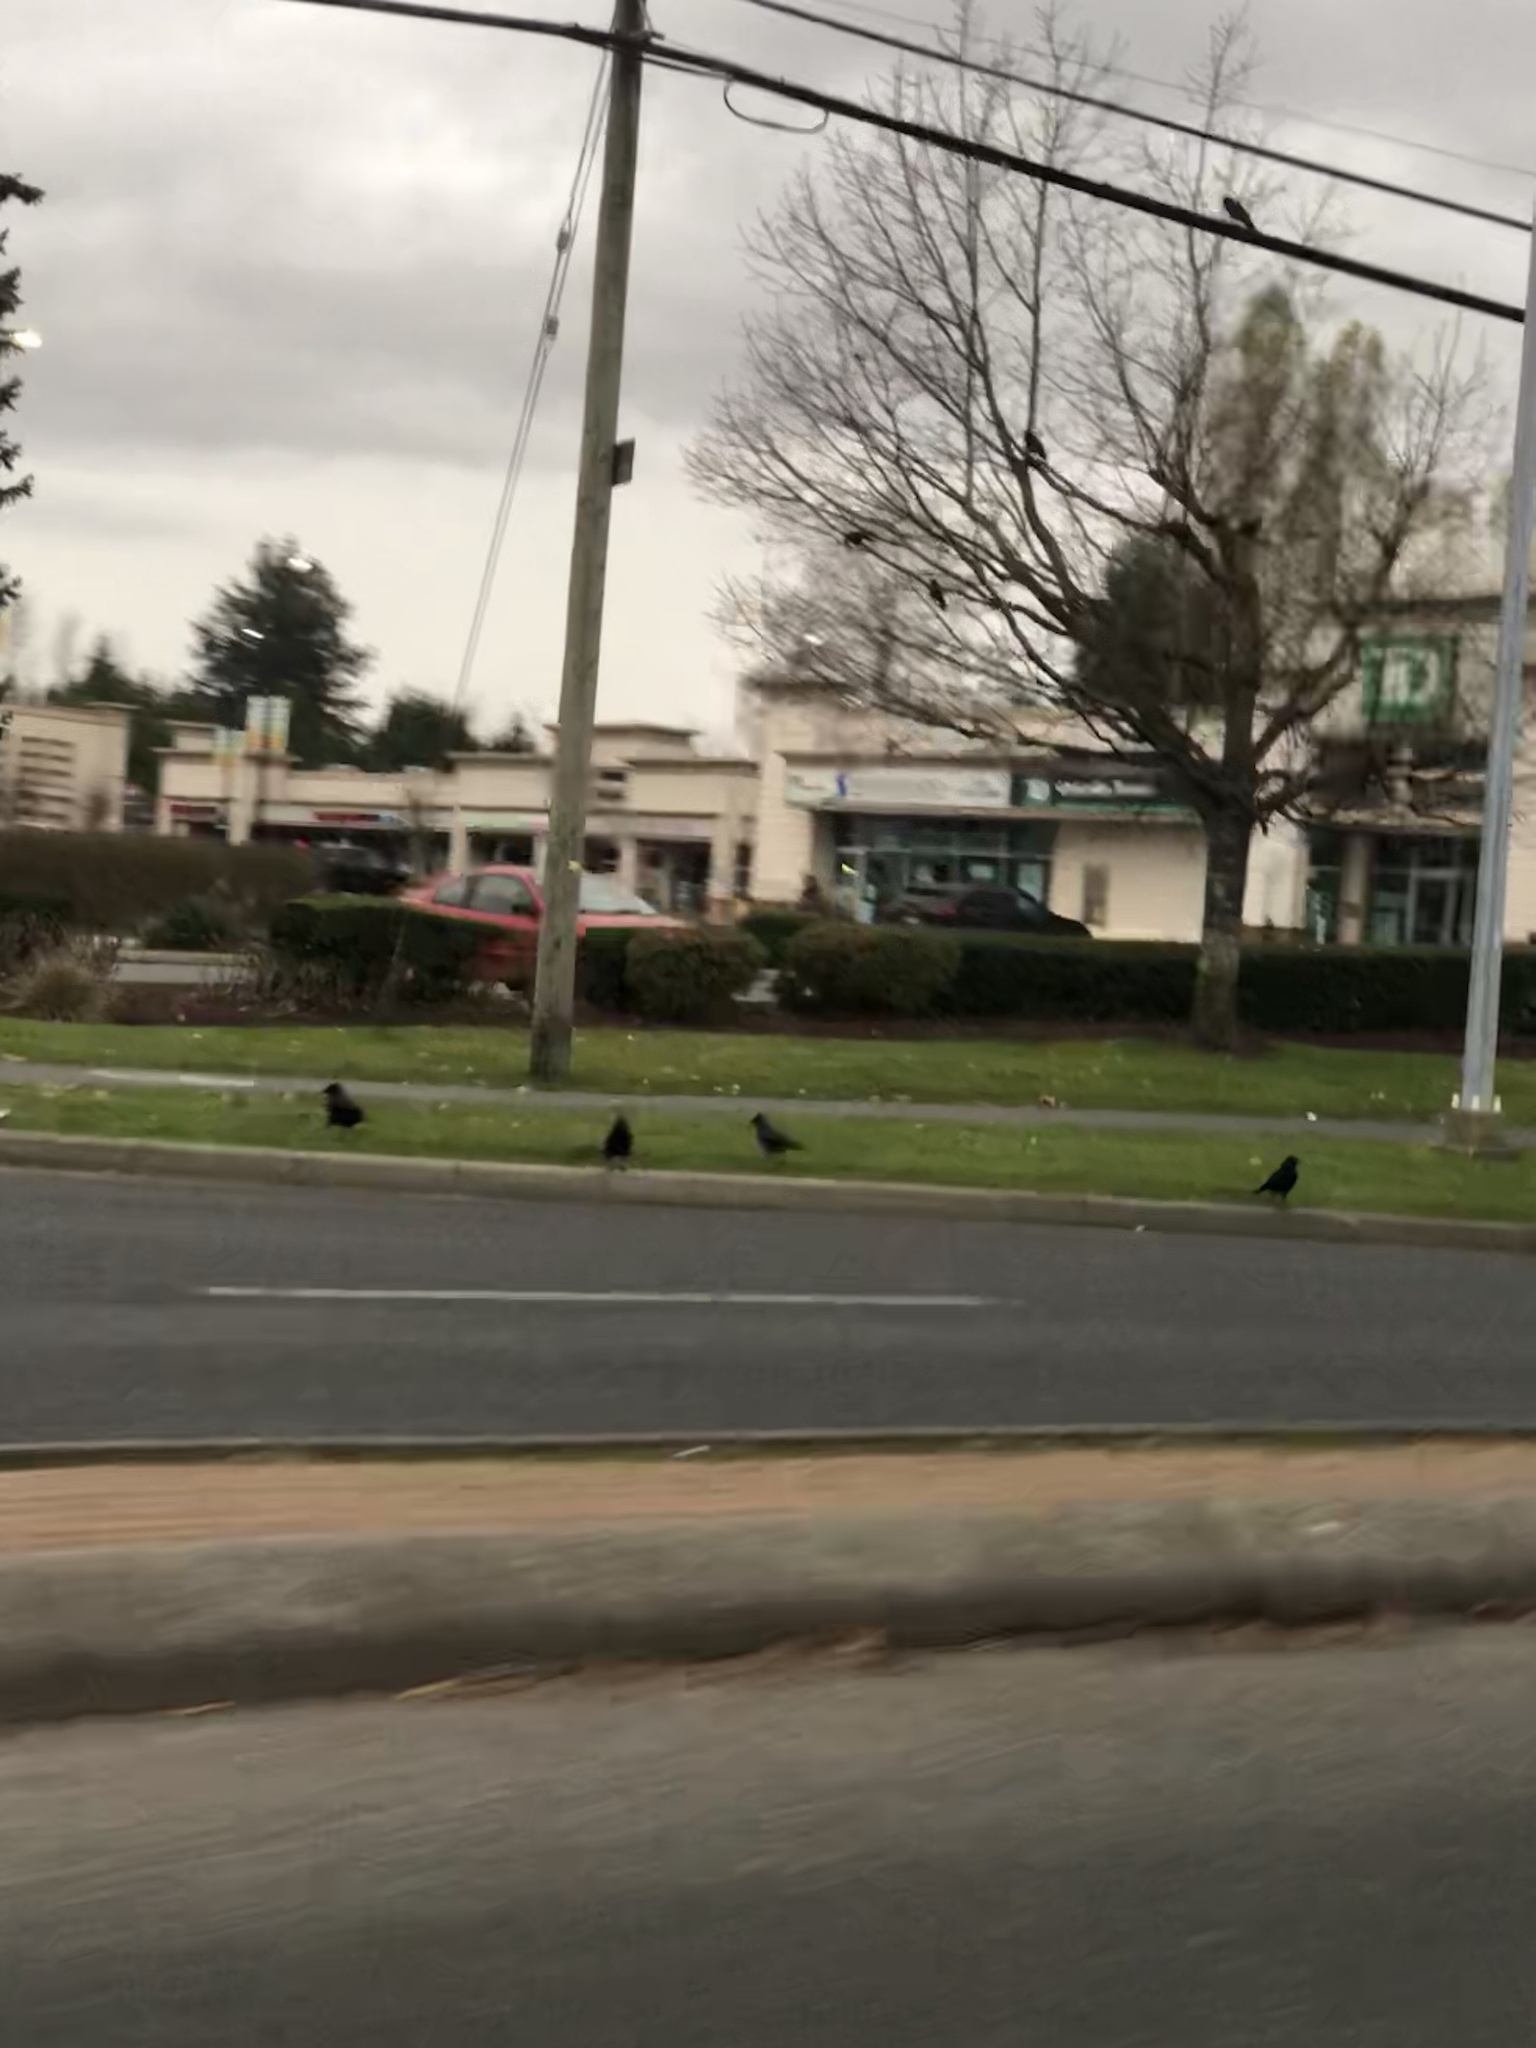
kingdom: Animalia
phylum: Chordata
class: Aves
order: Passeriformes
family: Corvidae
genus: Corvus
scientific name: Corvus brachyrhynchos
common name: American crow
